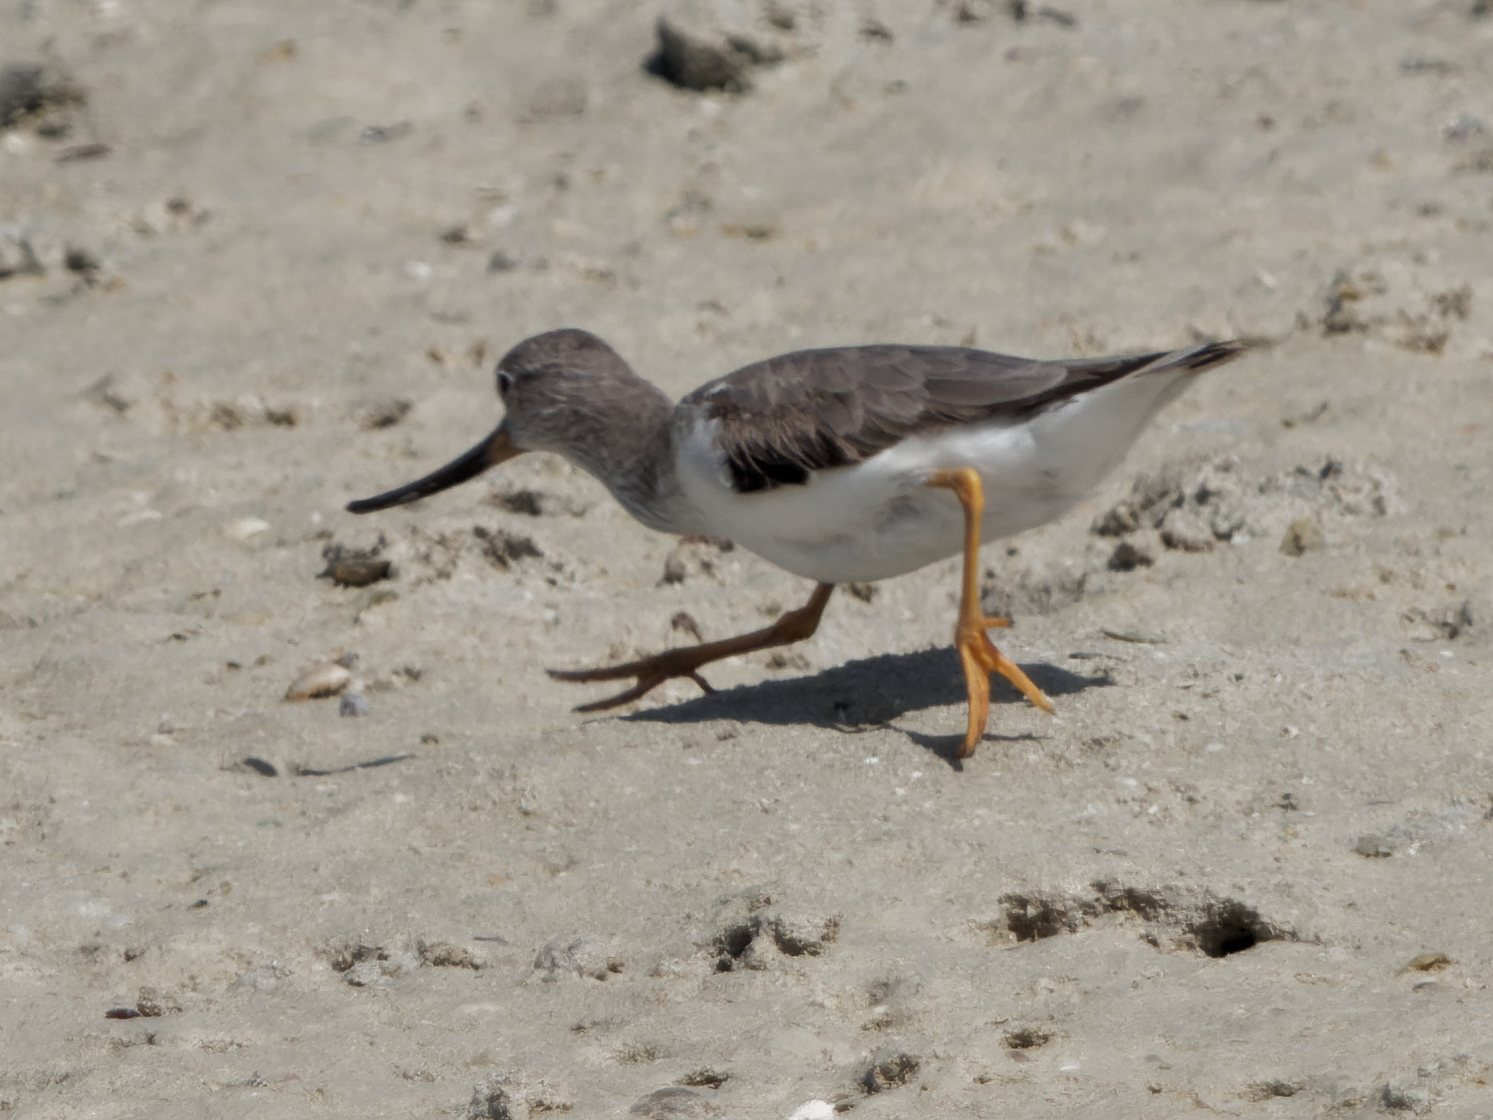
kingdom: Animalia
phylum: Chordata
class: Aves
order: Charadriiformes
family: Scolopacidae
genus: Xenus
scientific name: Xenus cinereus
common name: Terek sandpiper
